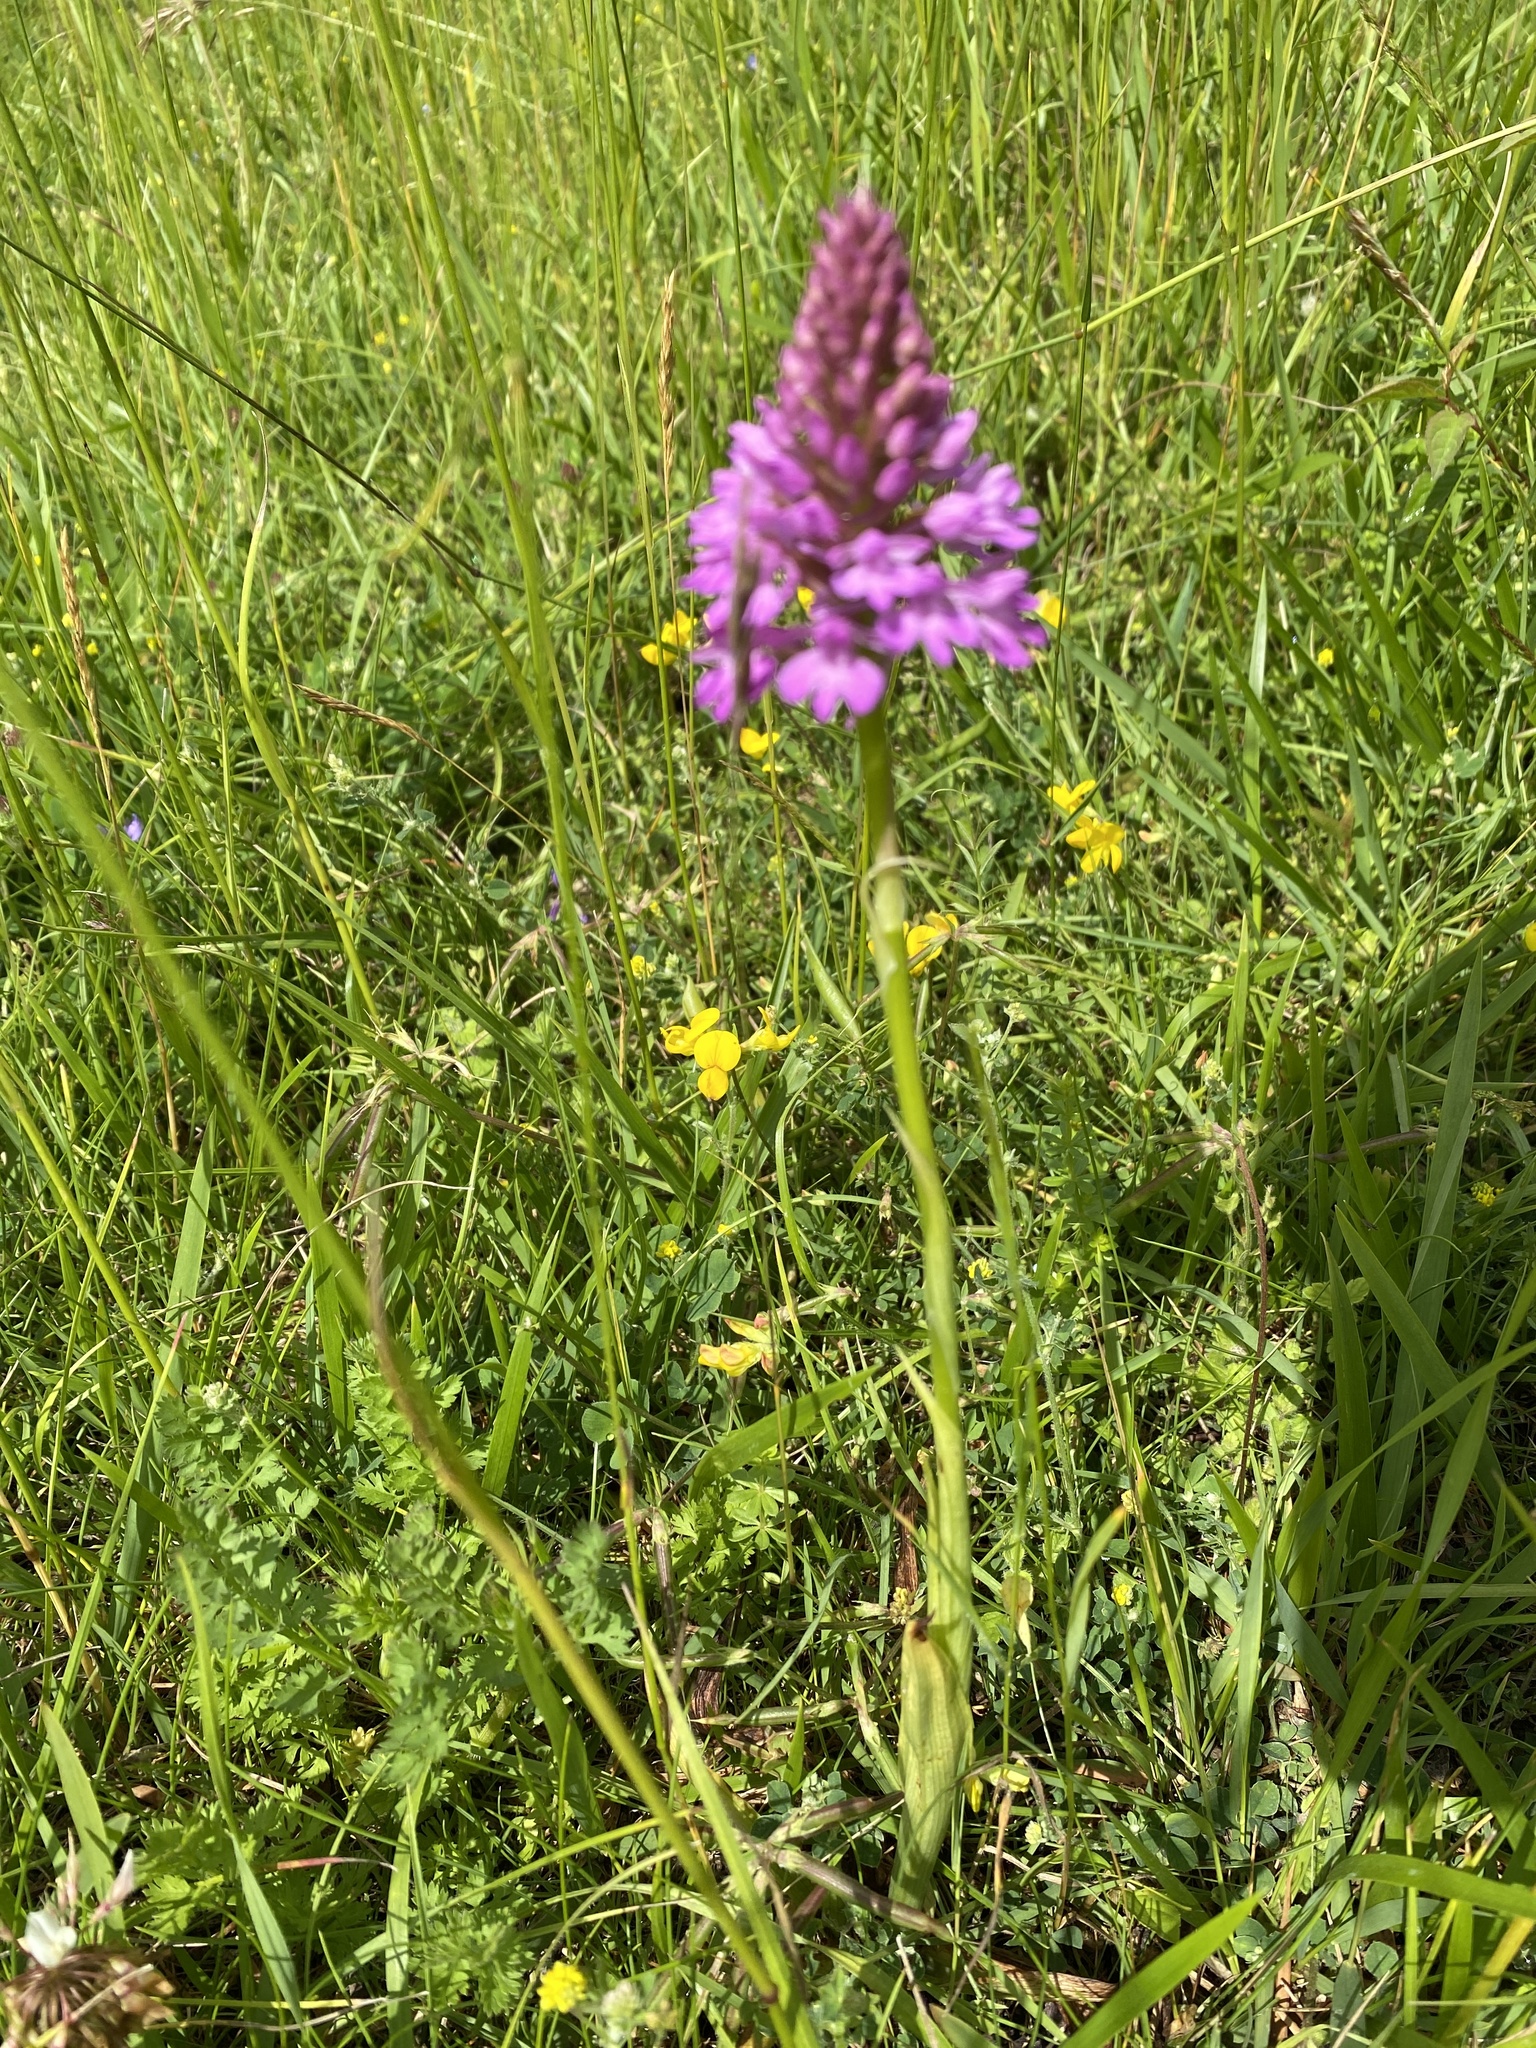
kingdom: Plantae
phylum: Tracheophyta
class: Liliopsida
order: Asparagales
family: Orchidaceae
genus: Anacamptis
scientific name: Anacamptis pyramidalis
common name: Pyramidal orchid
